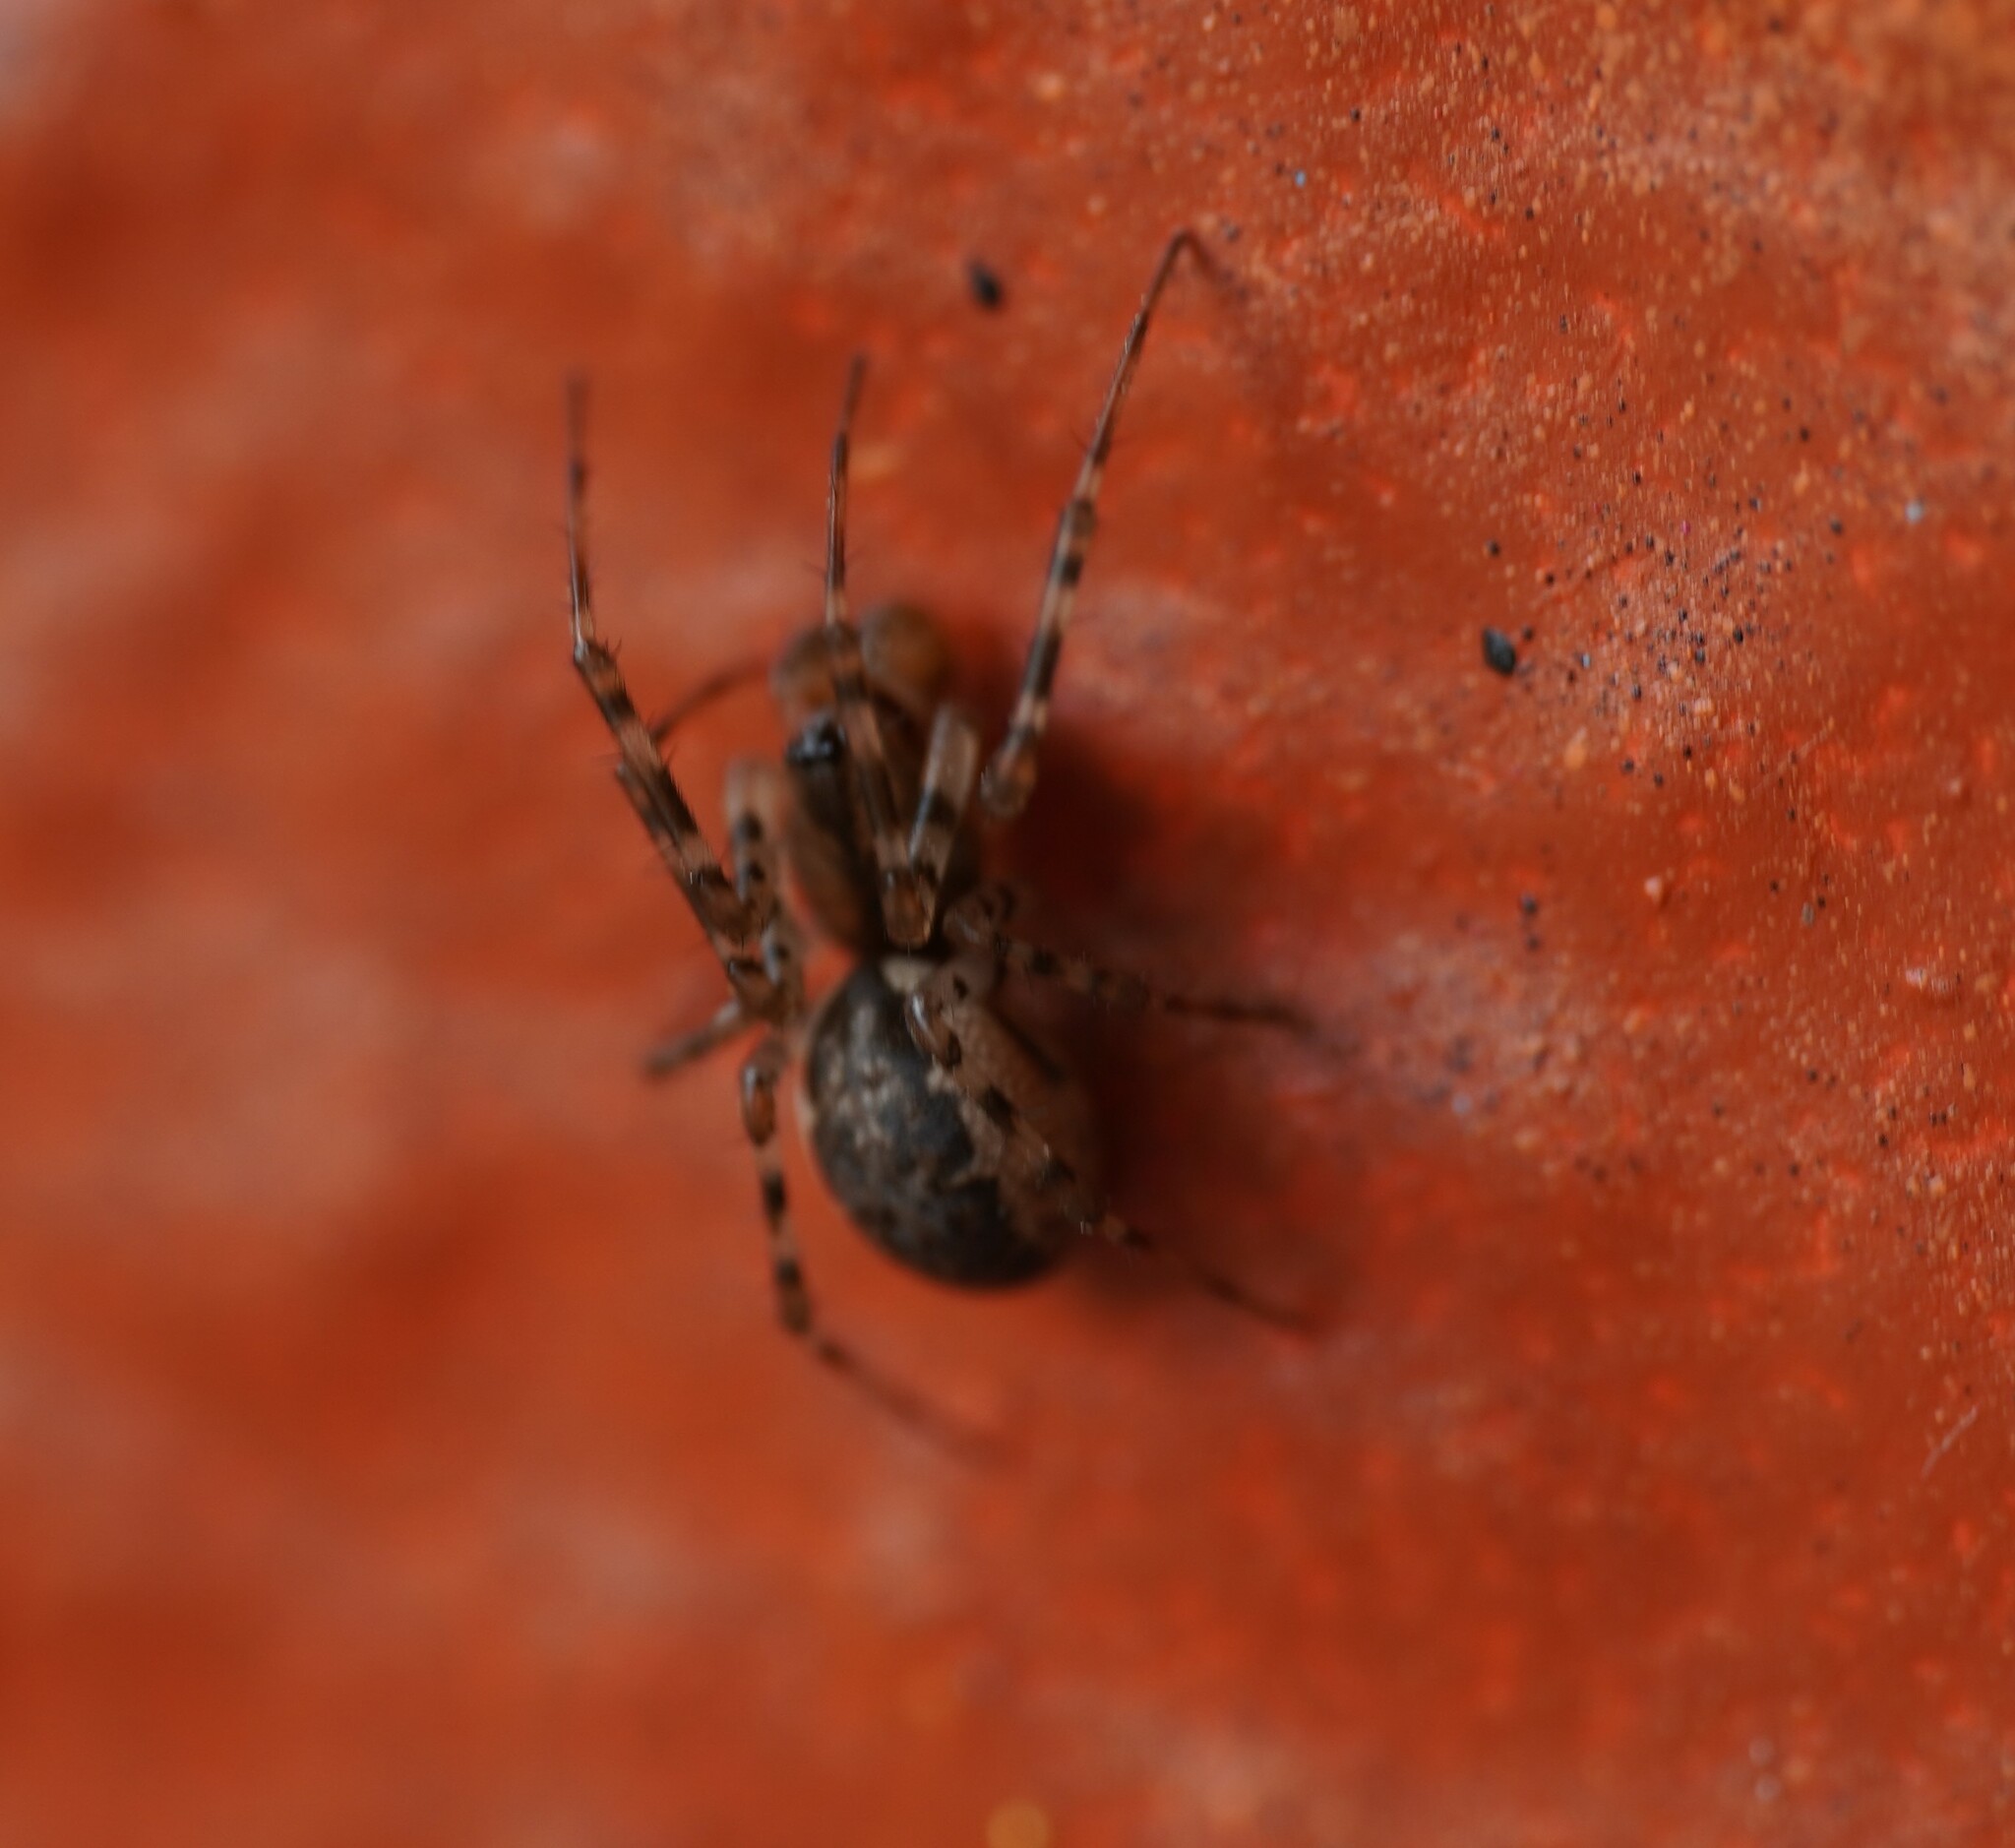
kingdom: Animalia
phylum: Arthropoda
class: Arachnida
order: Araneae
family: Linyphiidae
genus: Neriene
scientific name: Neriene montana
